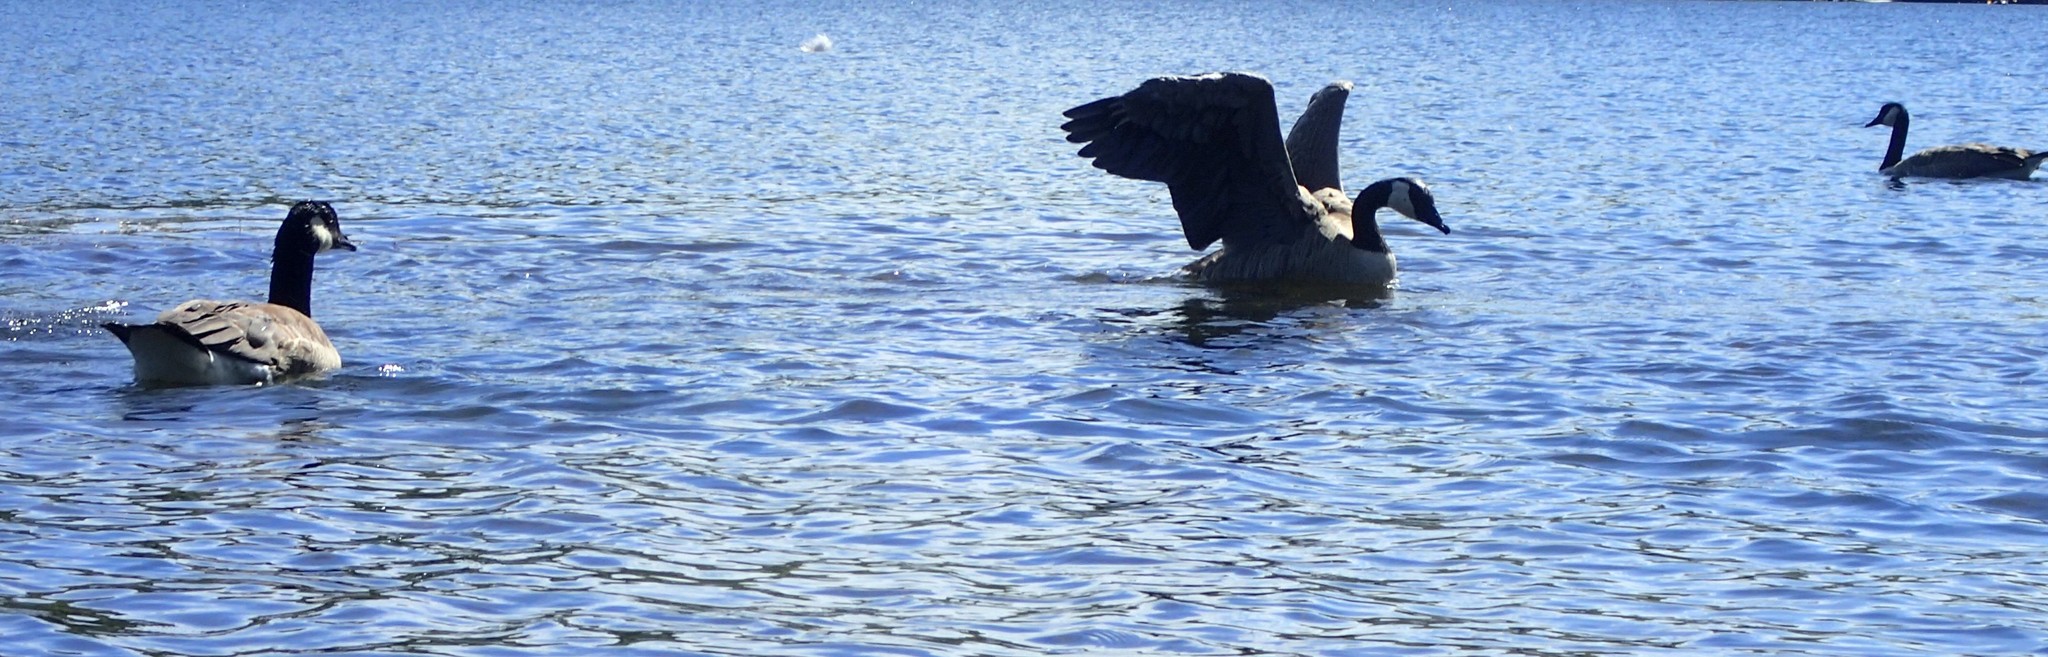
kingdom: Animalia
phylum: Chordata
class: Aves
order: Anseriformes
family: Anatidae
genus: Branta
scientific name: Branta canadensis
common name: Canada goose
